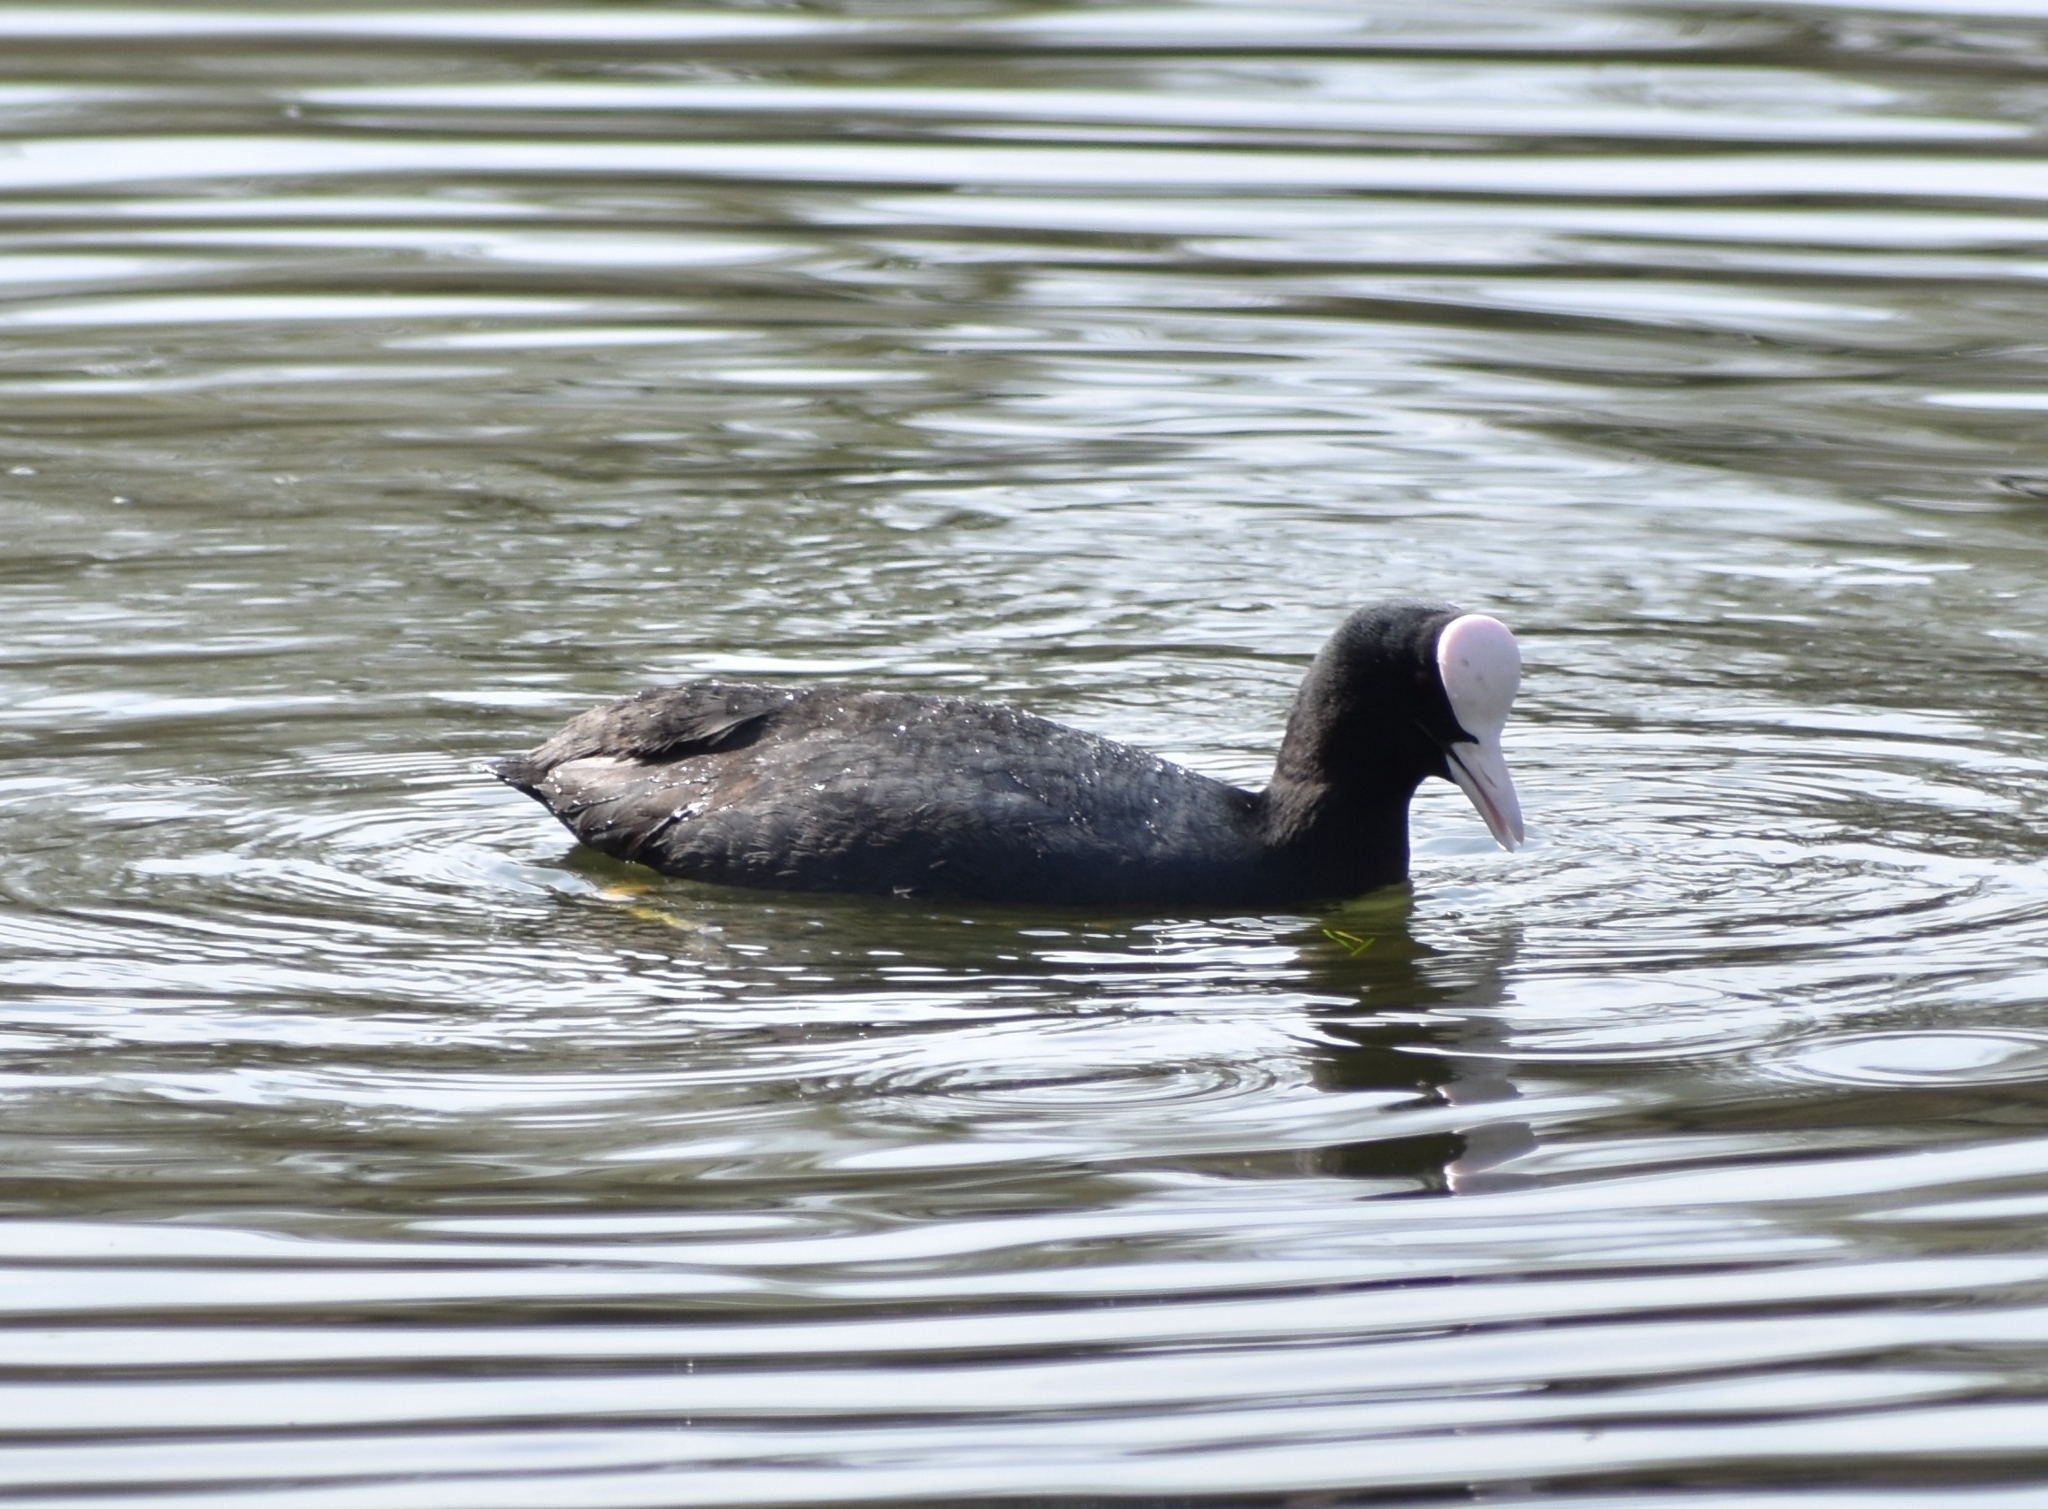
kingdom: Animalia
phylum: Chordata
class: Aves
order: Gruiformes
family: Rallidae
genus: Fulica
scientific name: Fulica atra
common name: Eurasian coot
